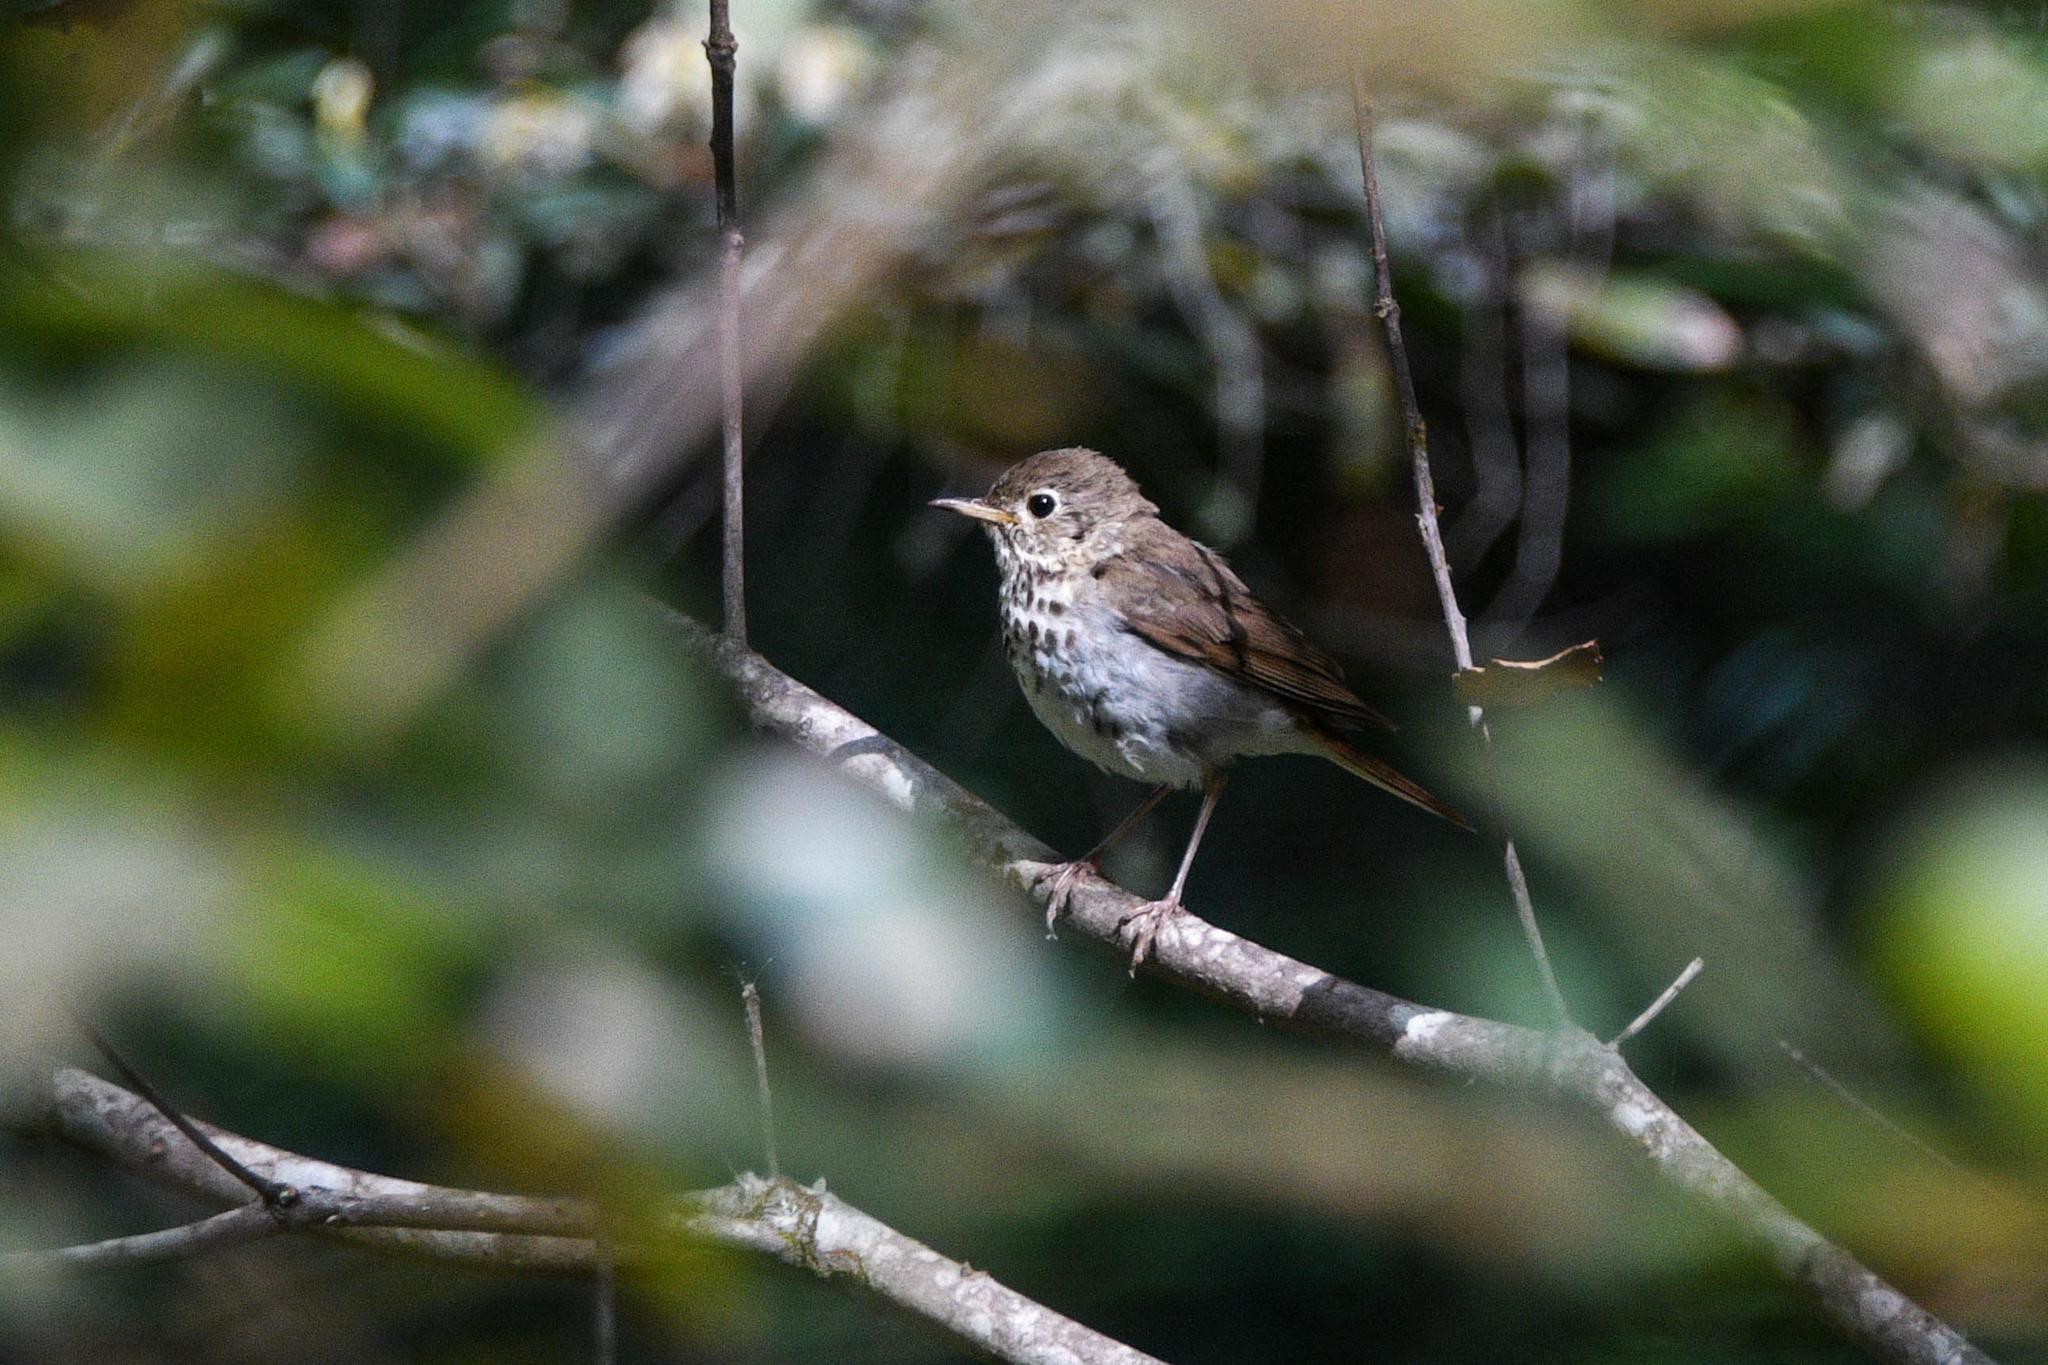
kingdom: Animalia
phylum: Chordata
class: Aves
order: Passeriformes
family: Turdidae
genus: Catharus
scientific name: Catharus guttatus
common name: Hermit thrush
